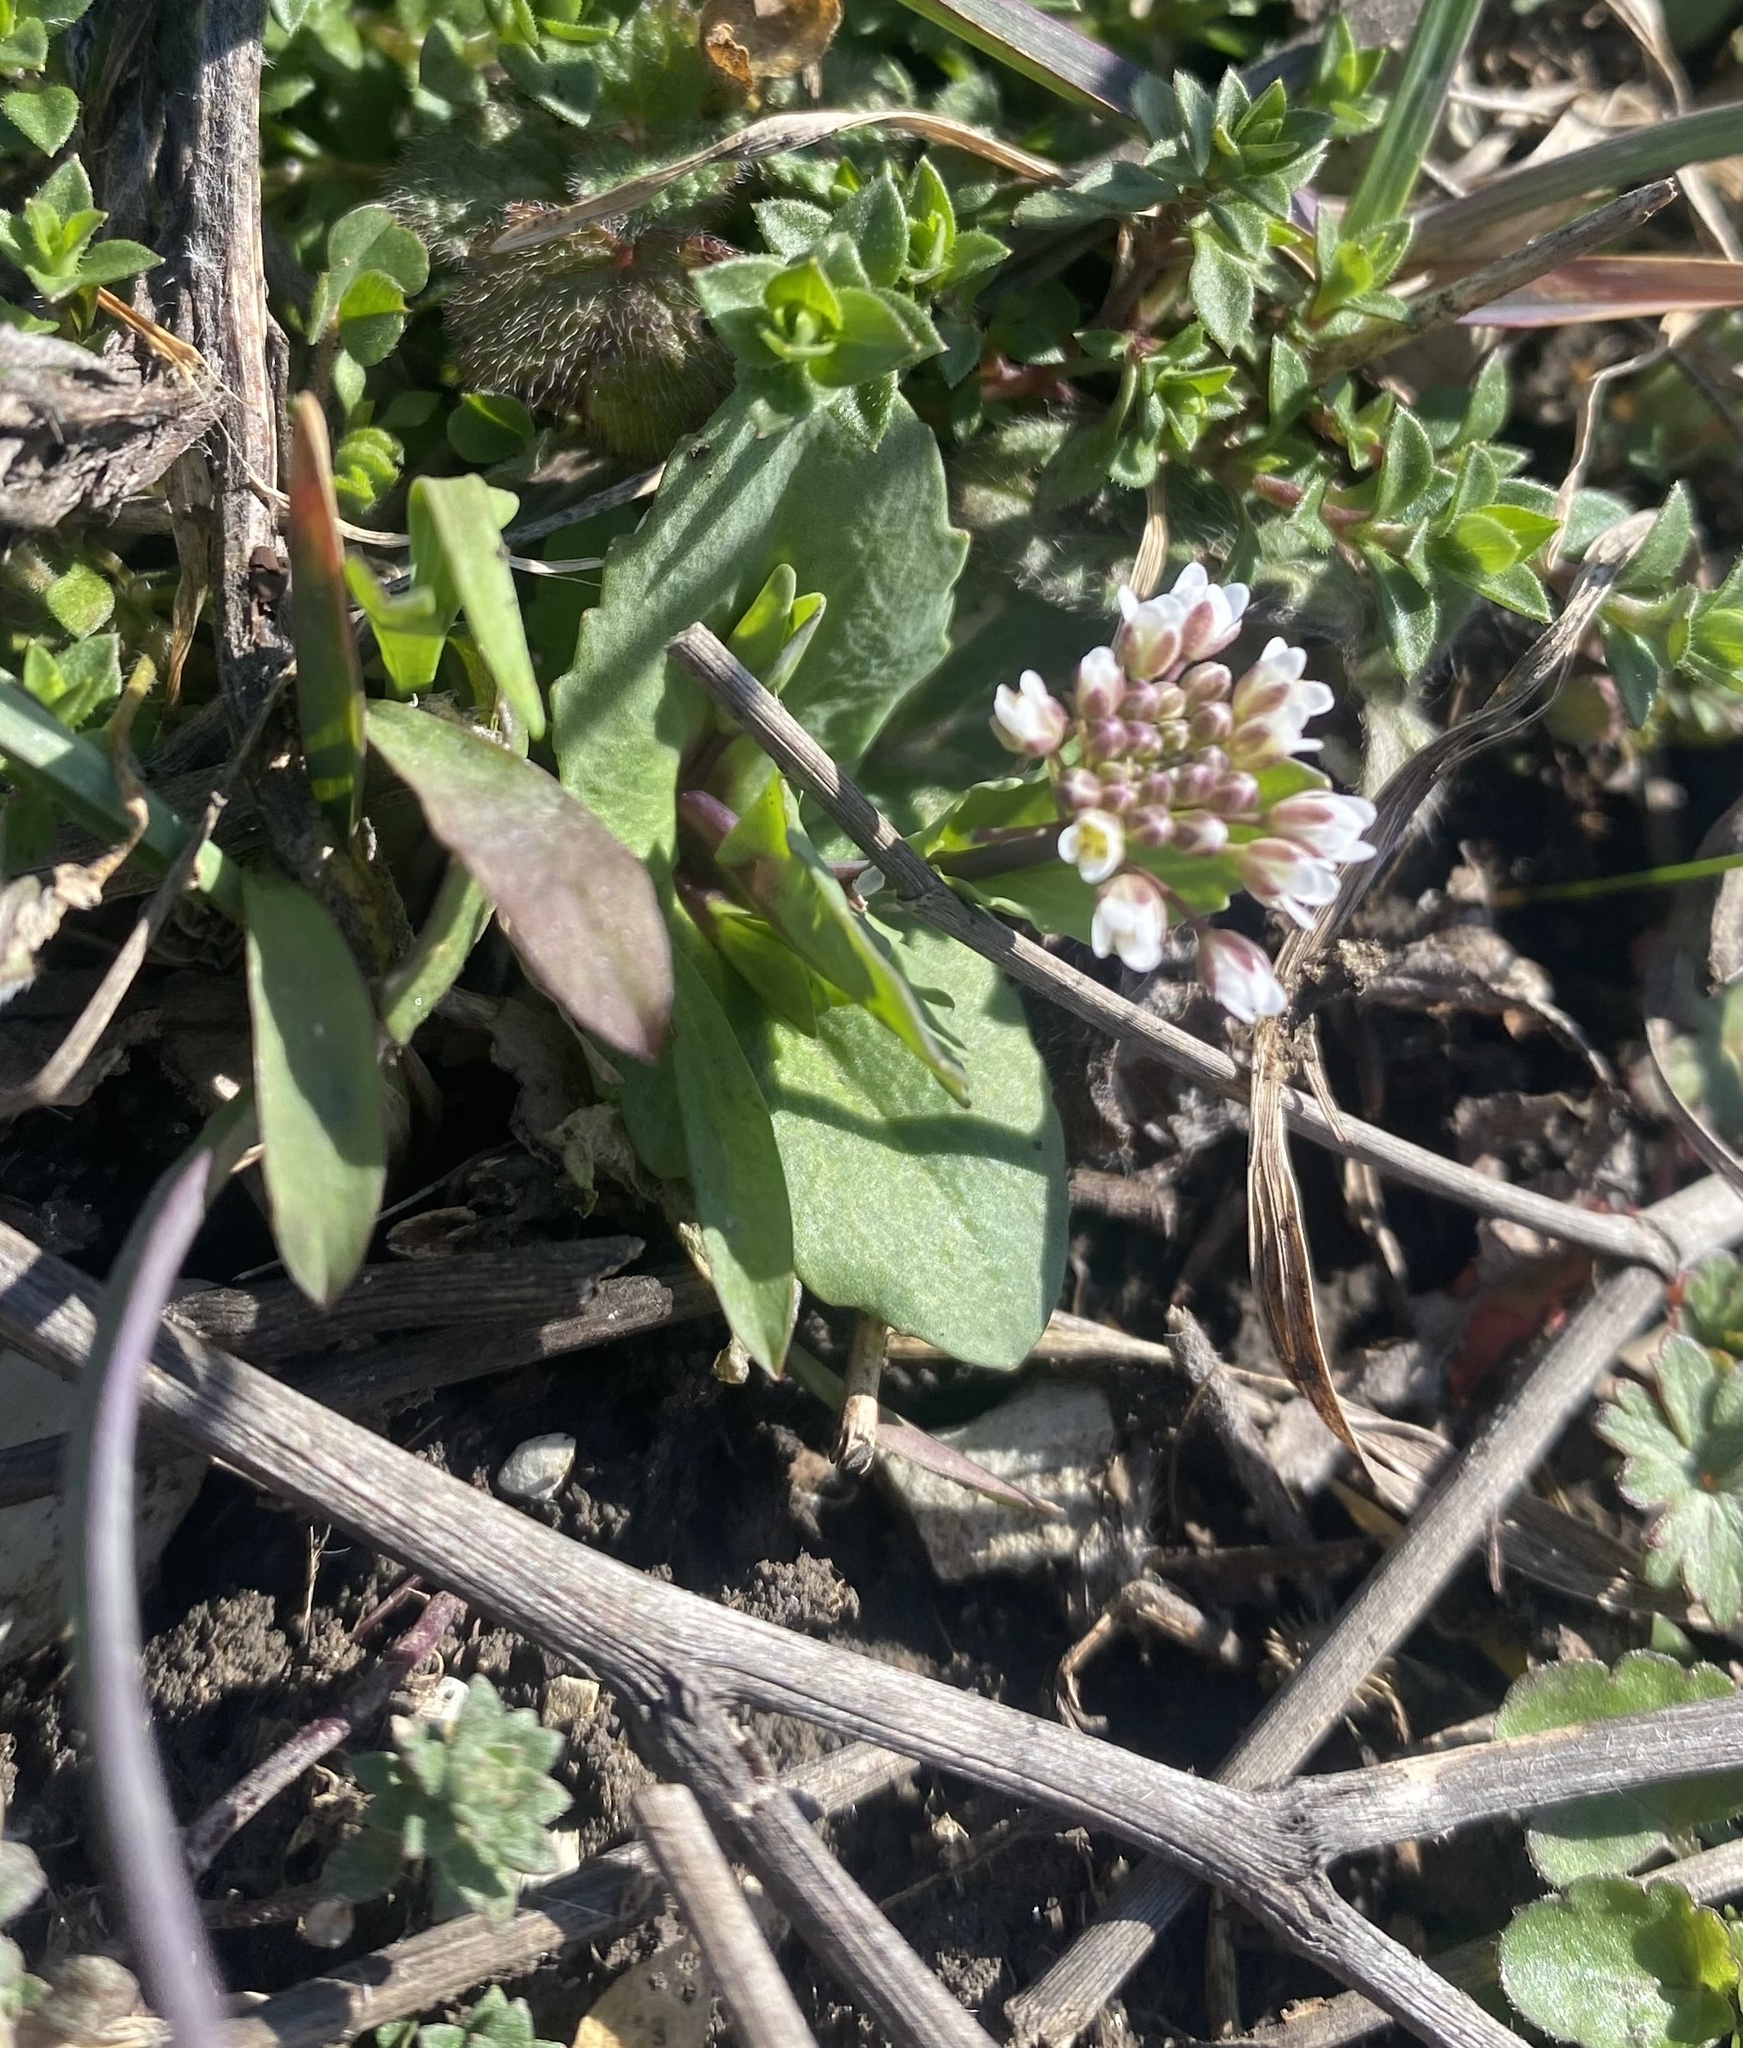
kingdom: Plantae
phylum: Tracheophyta
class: Magnoliopsida
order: Brassicales
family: Brassicaceae
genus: Noccaea
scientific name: Noccaea perfoliata
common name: Perfoliate pennycress
